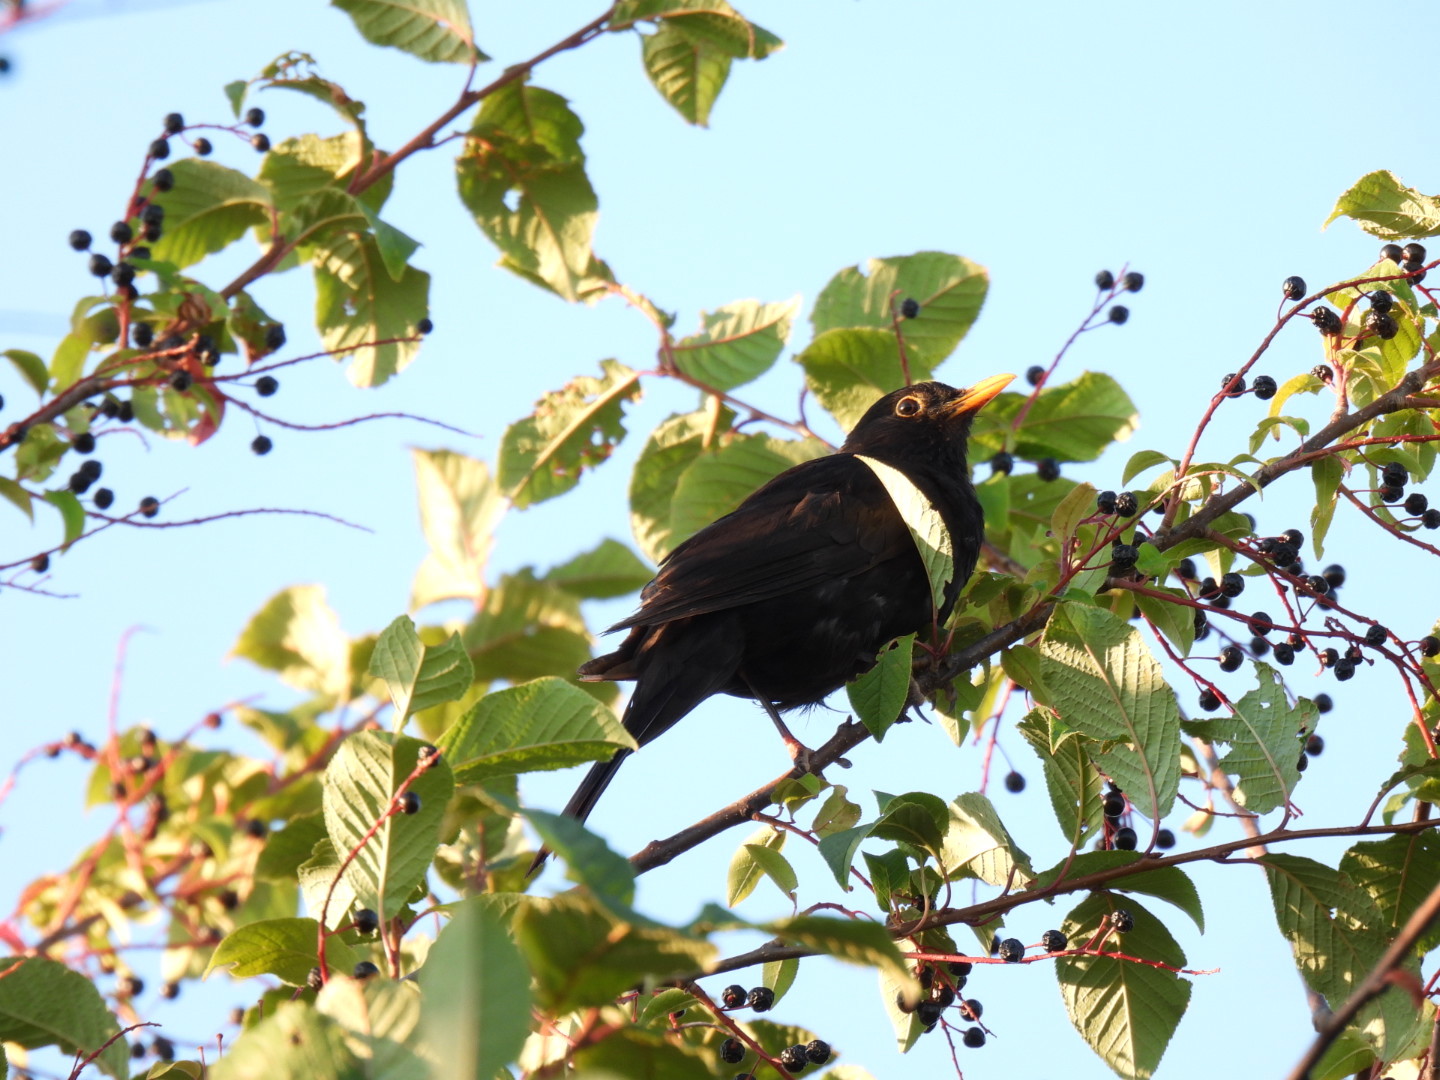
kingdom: Animalia
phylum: Chordata
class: Aves
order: Passeriformes
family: Turdidae
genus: Turdus
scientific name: Turdus merula
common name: Common blackbird
